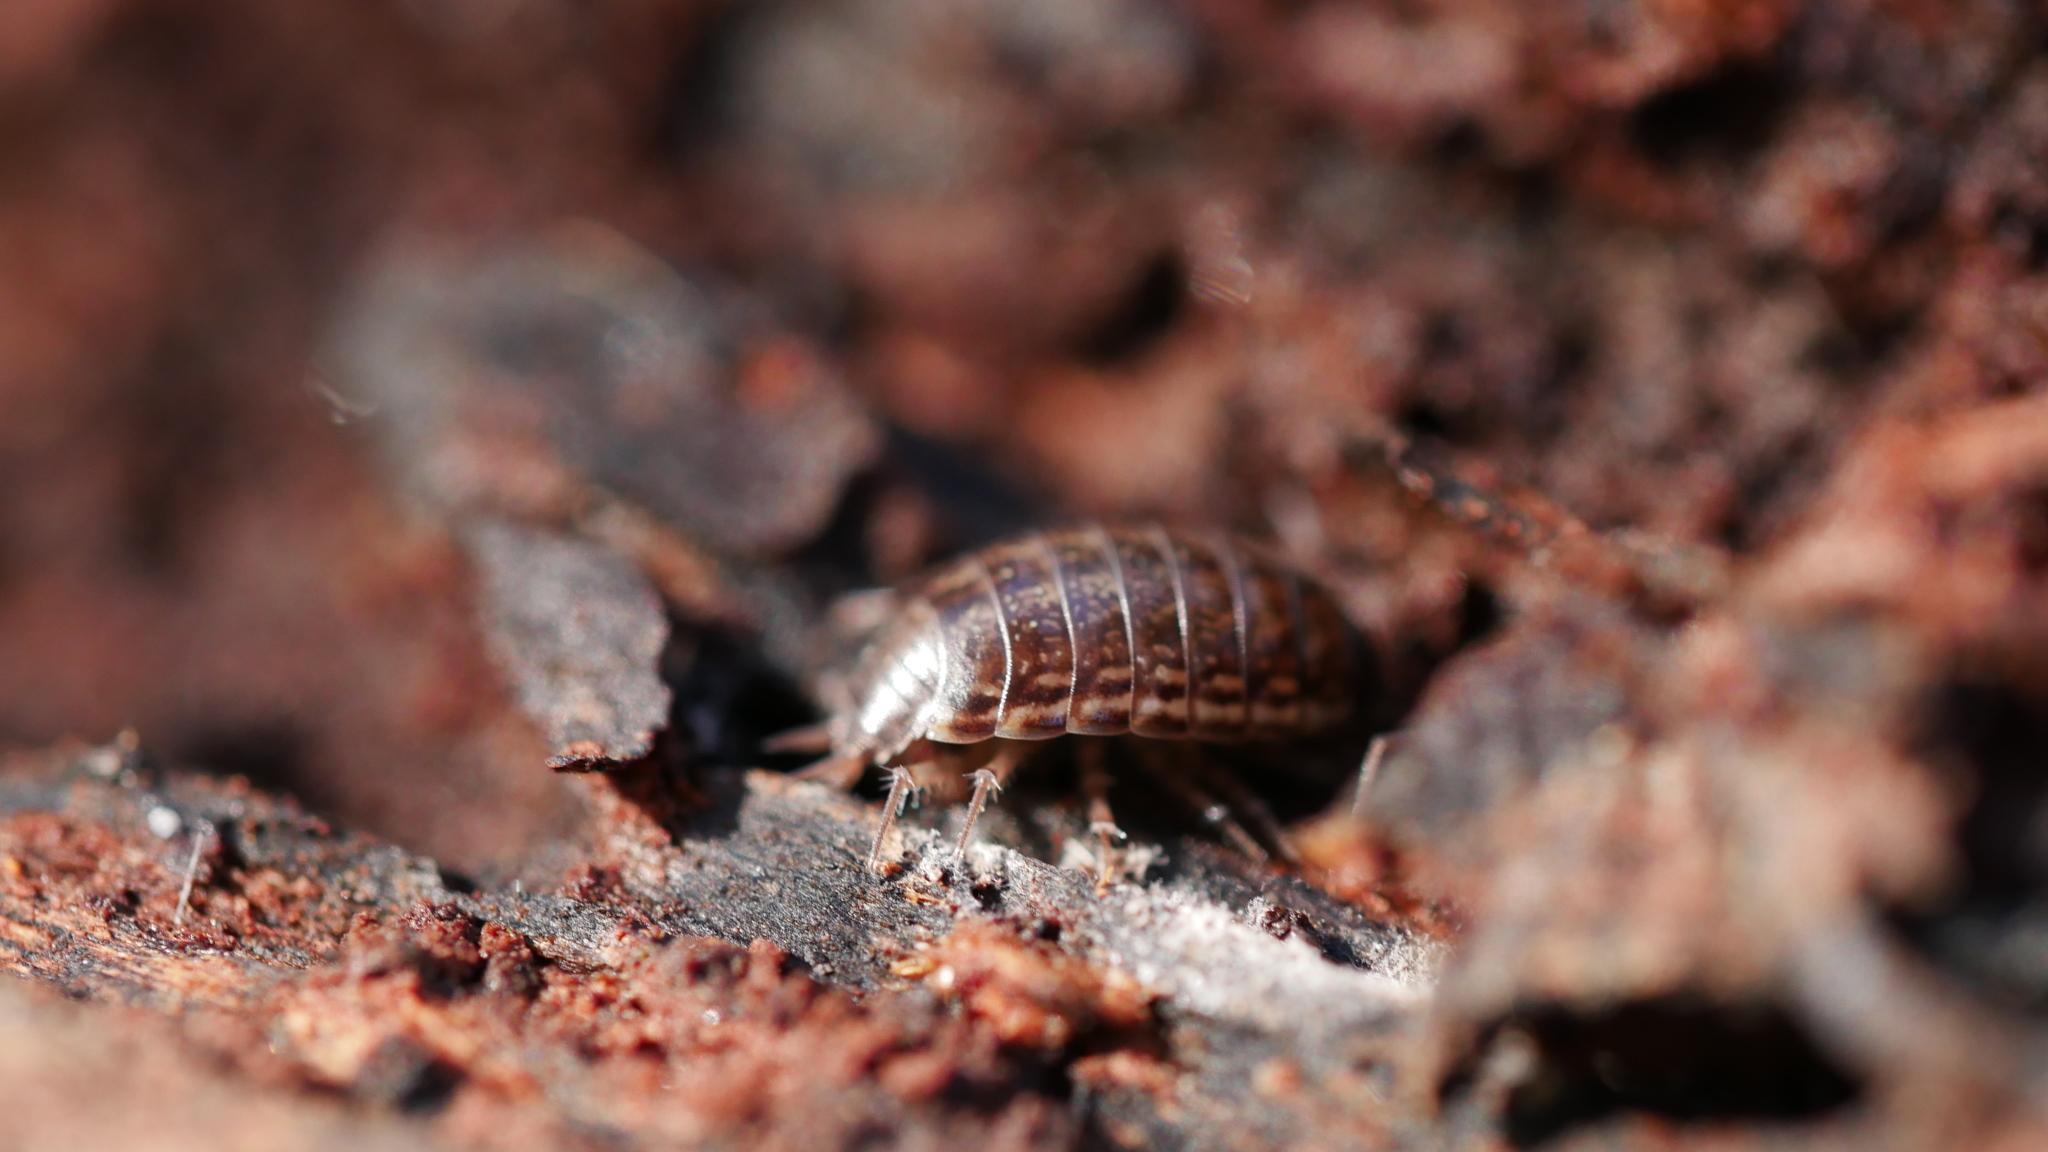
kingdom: Animalia
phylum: Arthropoda
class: Malacostraca
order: Isopoda
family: Philosciidae
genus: Philoscia
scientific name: Philoscia muscorum
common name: Common striped woodlouse
